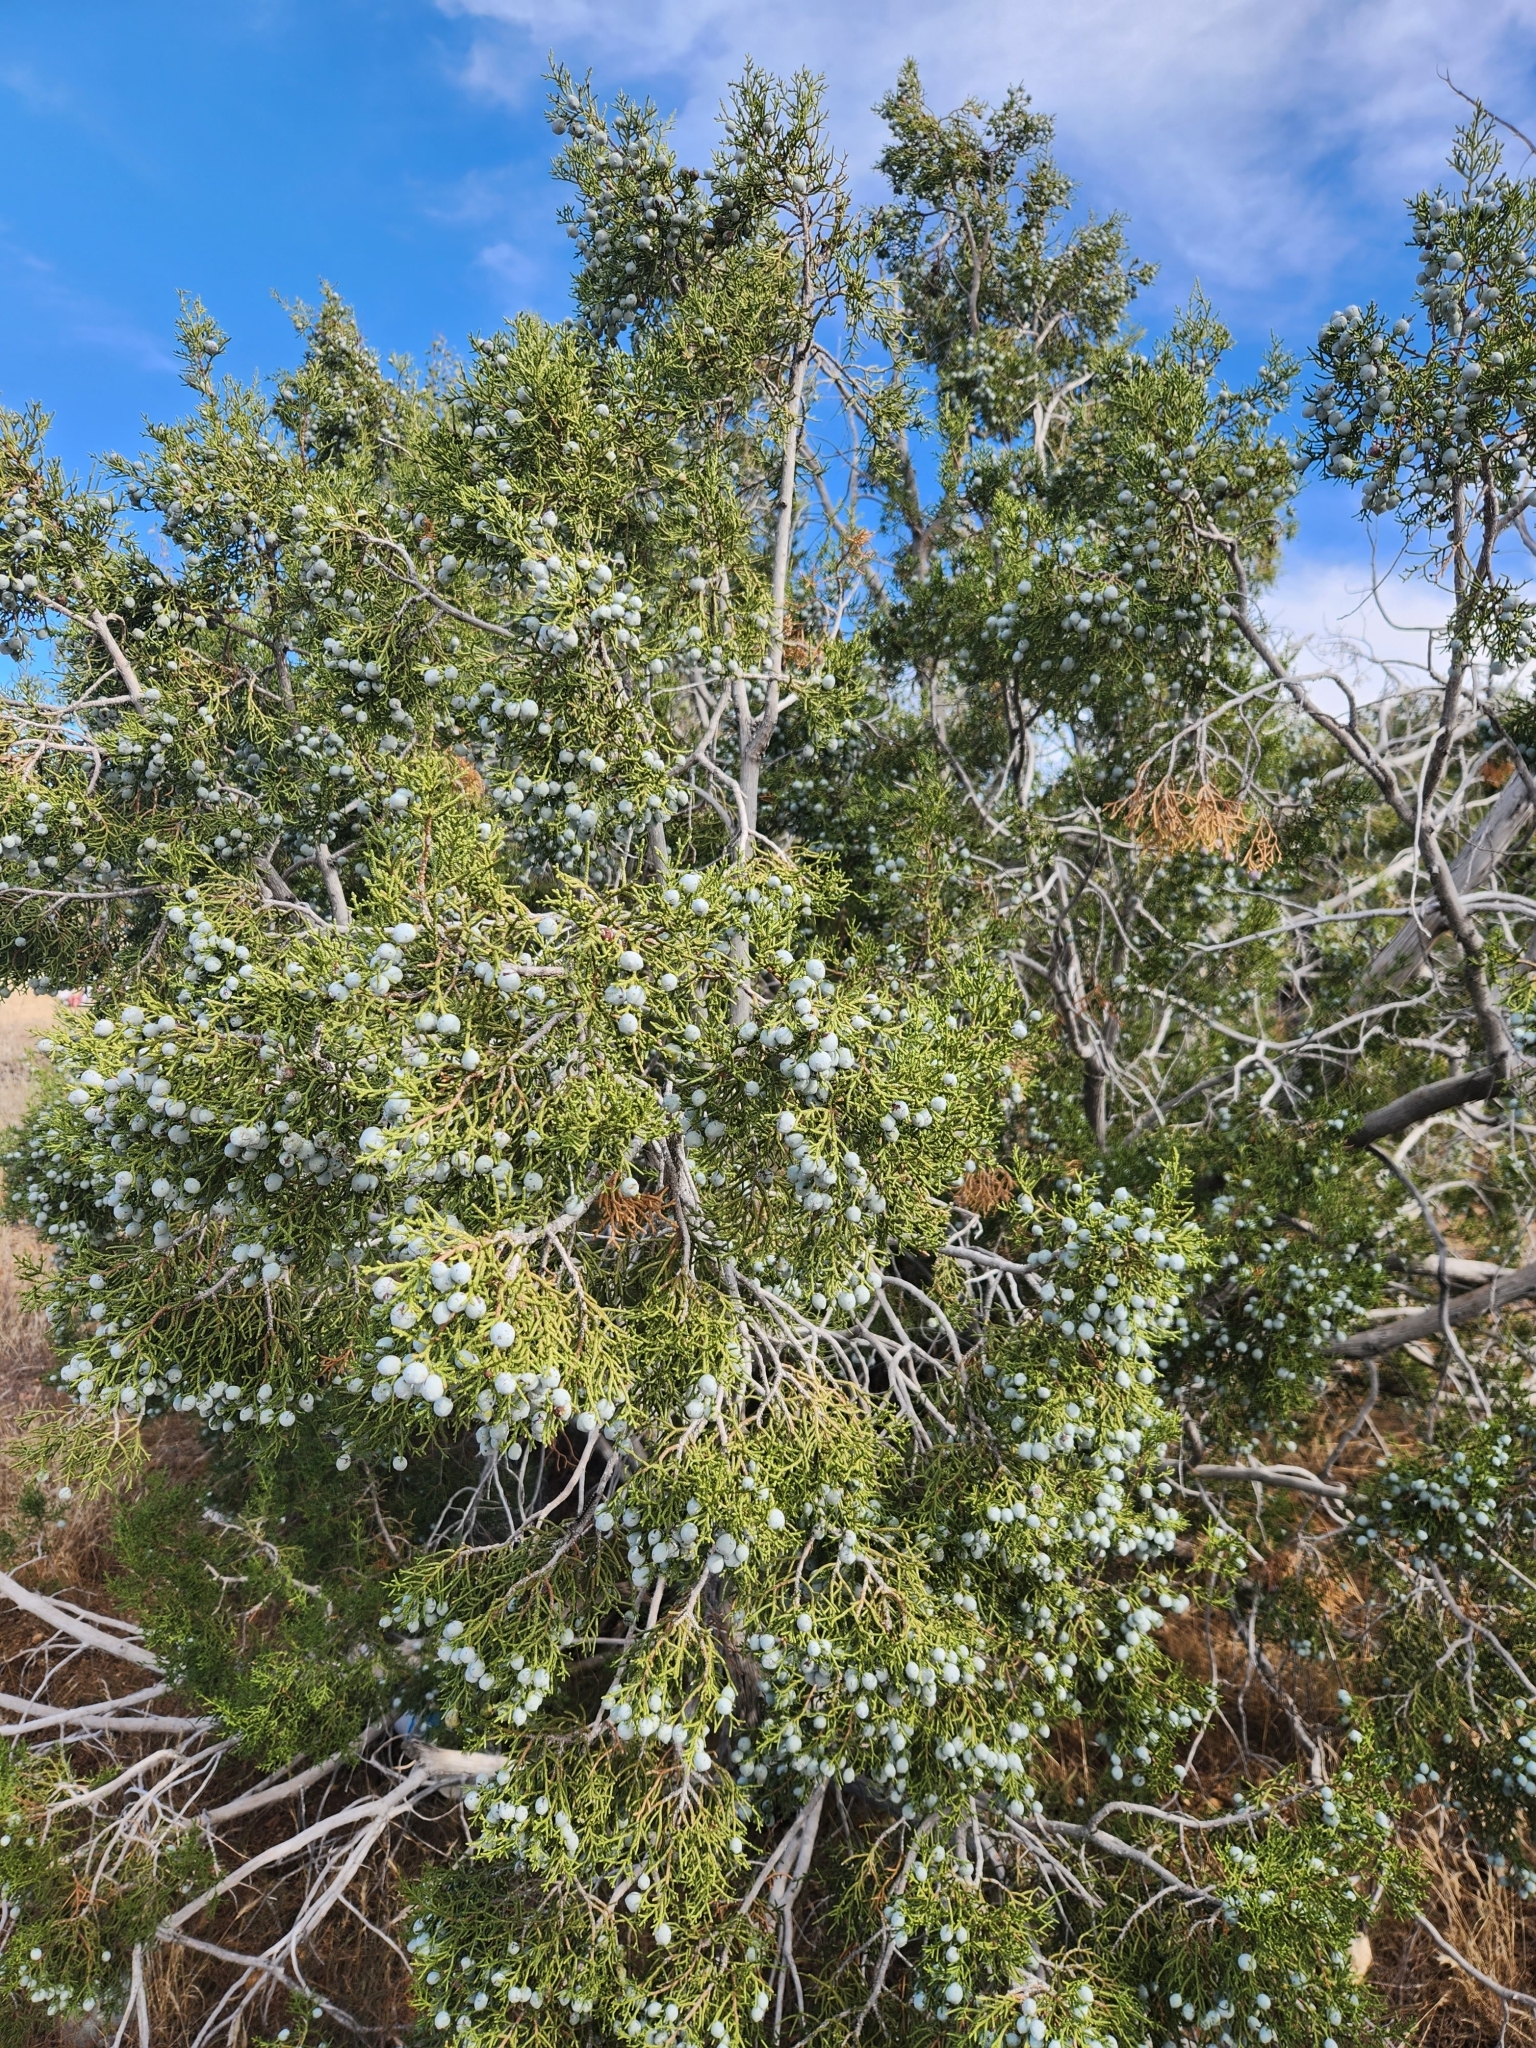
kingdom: Plantae
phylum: Tracheophyta
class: Pinopsida
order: Pinales
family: Cupressaceae
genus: Juniperus
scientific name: Juniperus californica
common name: California juniper
